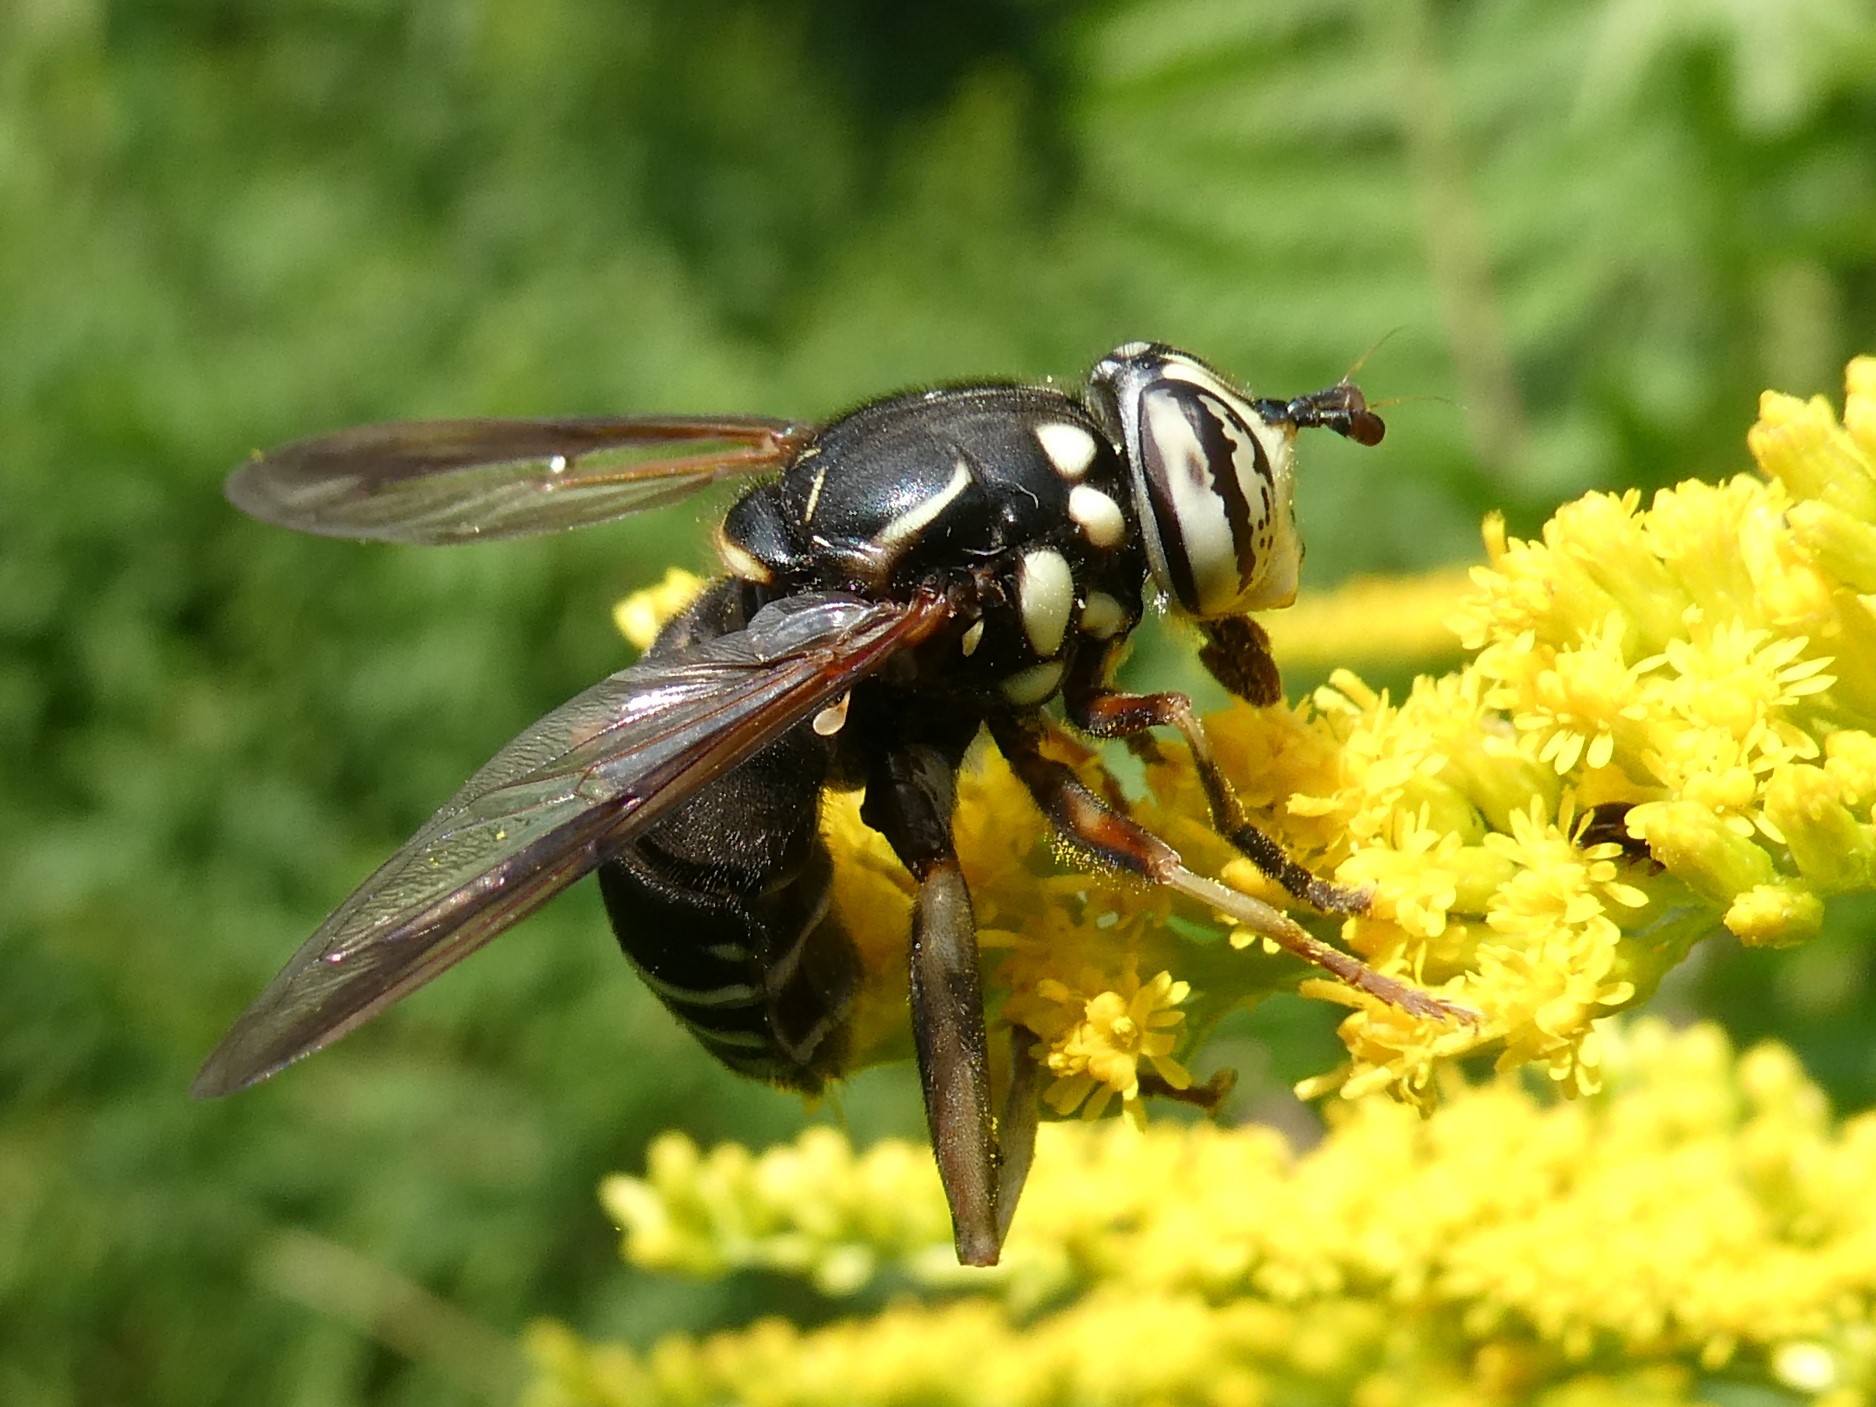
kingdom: Animalia
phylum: Arthropoda
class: Insecta
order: Diptera
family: Syrphidae
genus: Spilomyia
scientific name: Spilomyia fusca
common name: Bald-faced hornet fly
